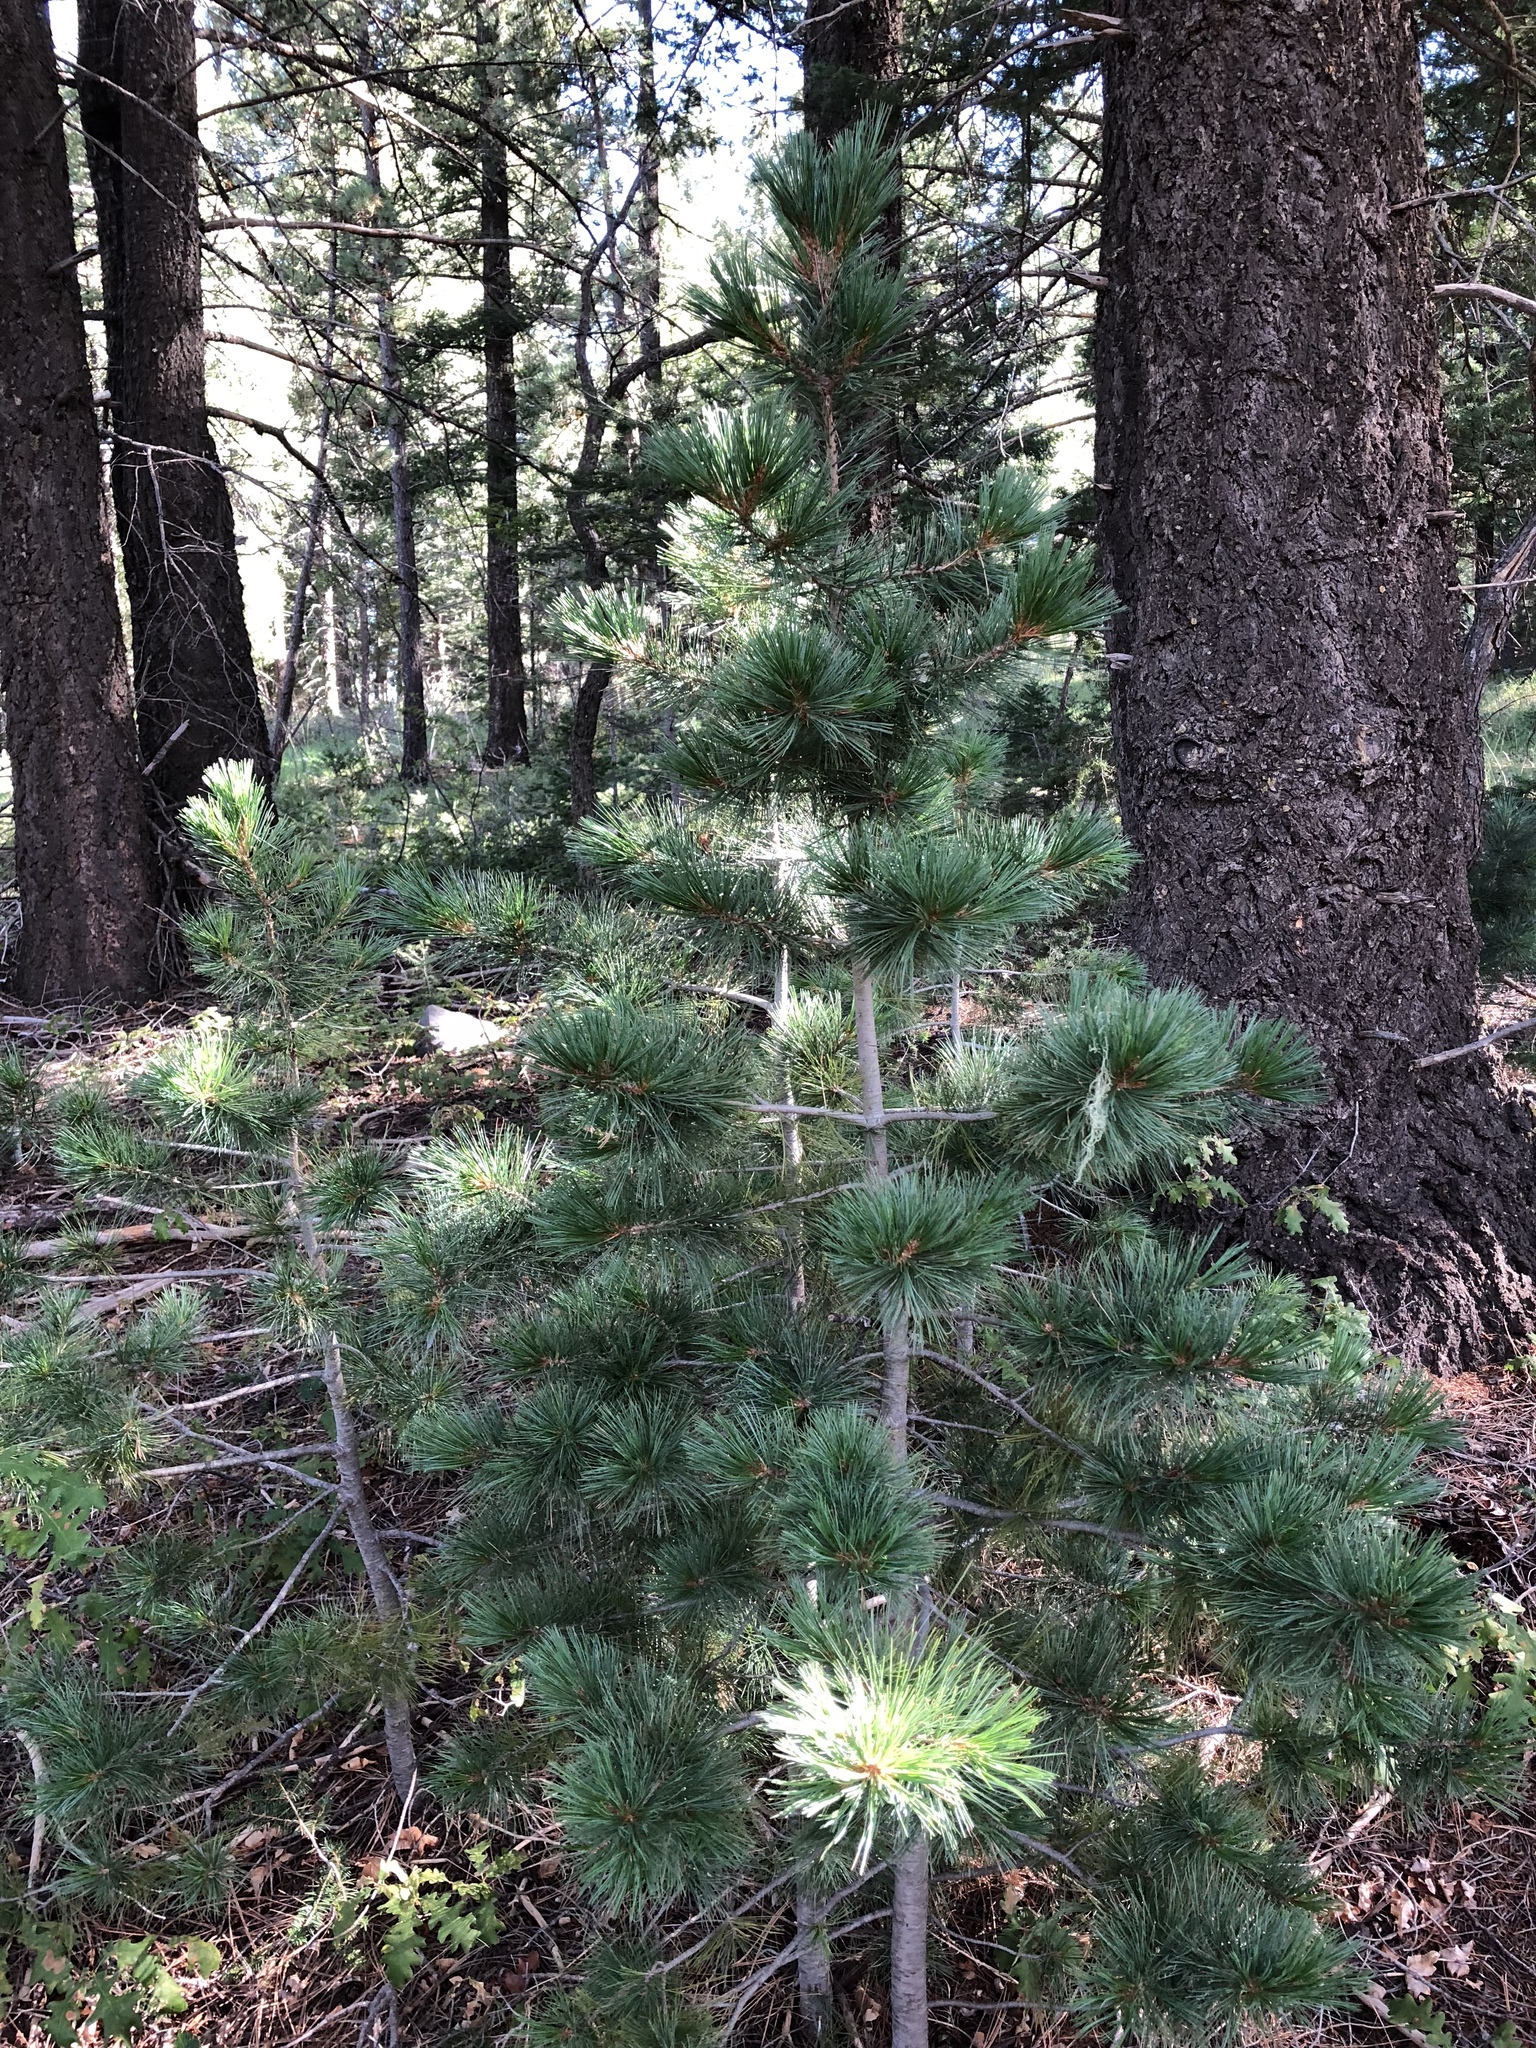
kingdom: Plantae
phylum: Tracheophyta
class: Pinopsida
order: Pinales
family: Pinaceae
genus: Pinus
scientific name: Pinus strobiformis
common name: Southwestern white pine
